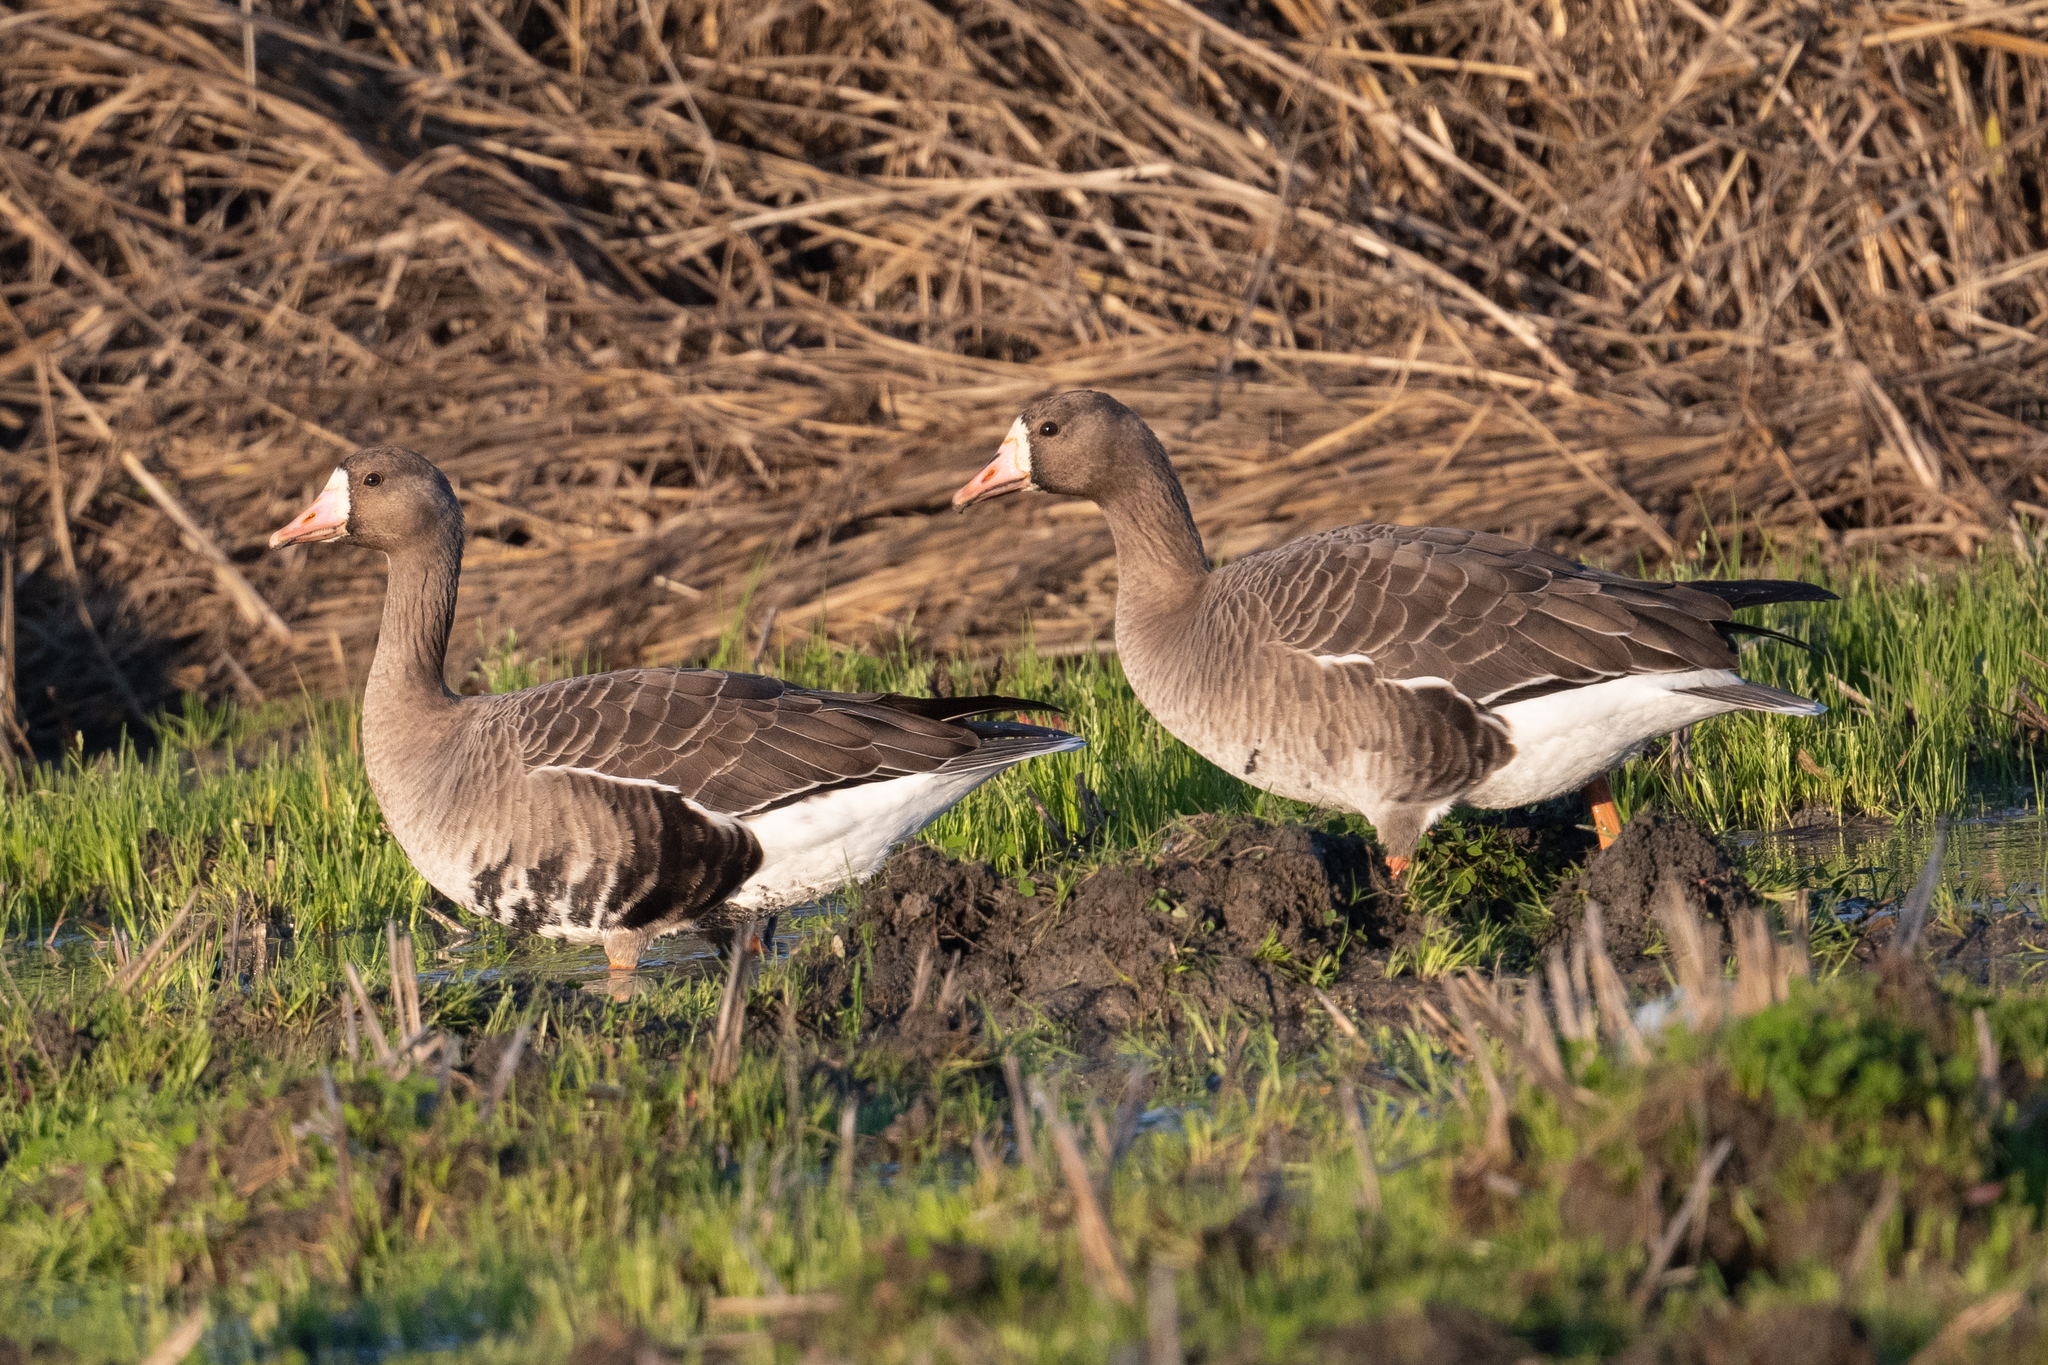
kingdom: Animalia
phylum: Chordata
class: Aves
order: Anseriformes
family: Anatidae
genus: Anser
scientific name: Anser albifrons
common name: Greater white-fronted goose
